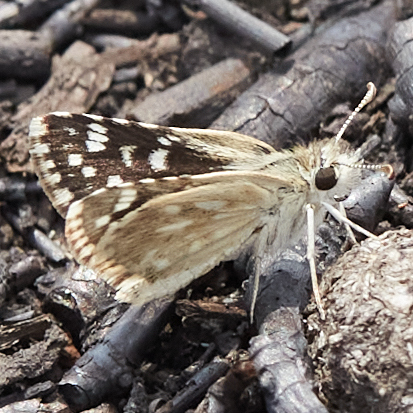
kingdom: Animalia
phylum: Arthropoda
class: Insecta
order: Lepidoptera
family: Hesperiidae
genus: Pyrgus
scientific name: Pyrgus scriptura
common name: Small checkered-skipper
